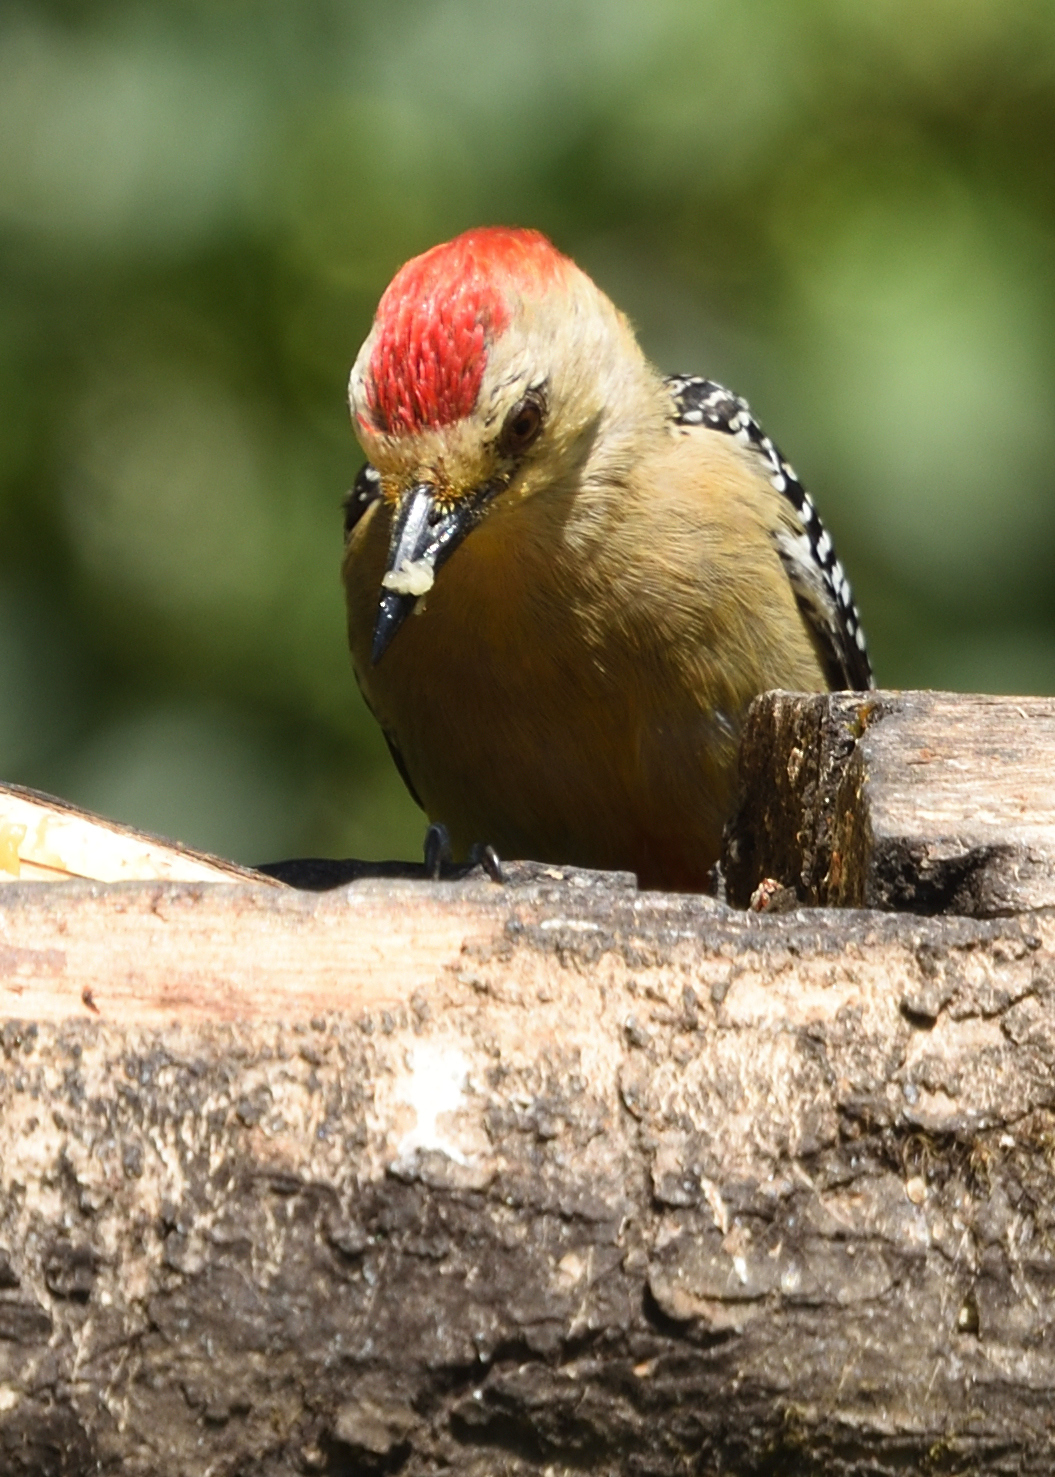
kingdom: Animalia
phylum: Chordata
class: Aves
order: Piciformes
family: Picidae
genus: Melanerpes
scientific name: Melanerpes rubricapillus
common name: Red-crowned woodpecker
